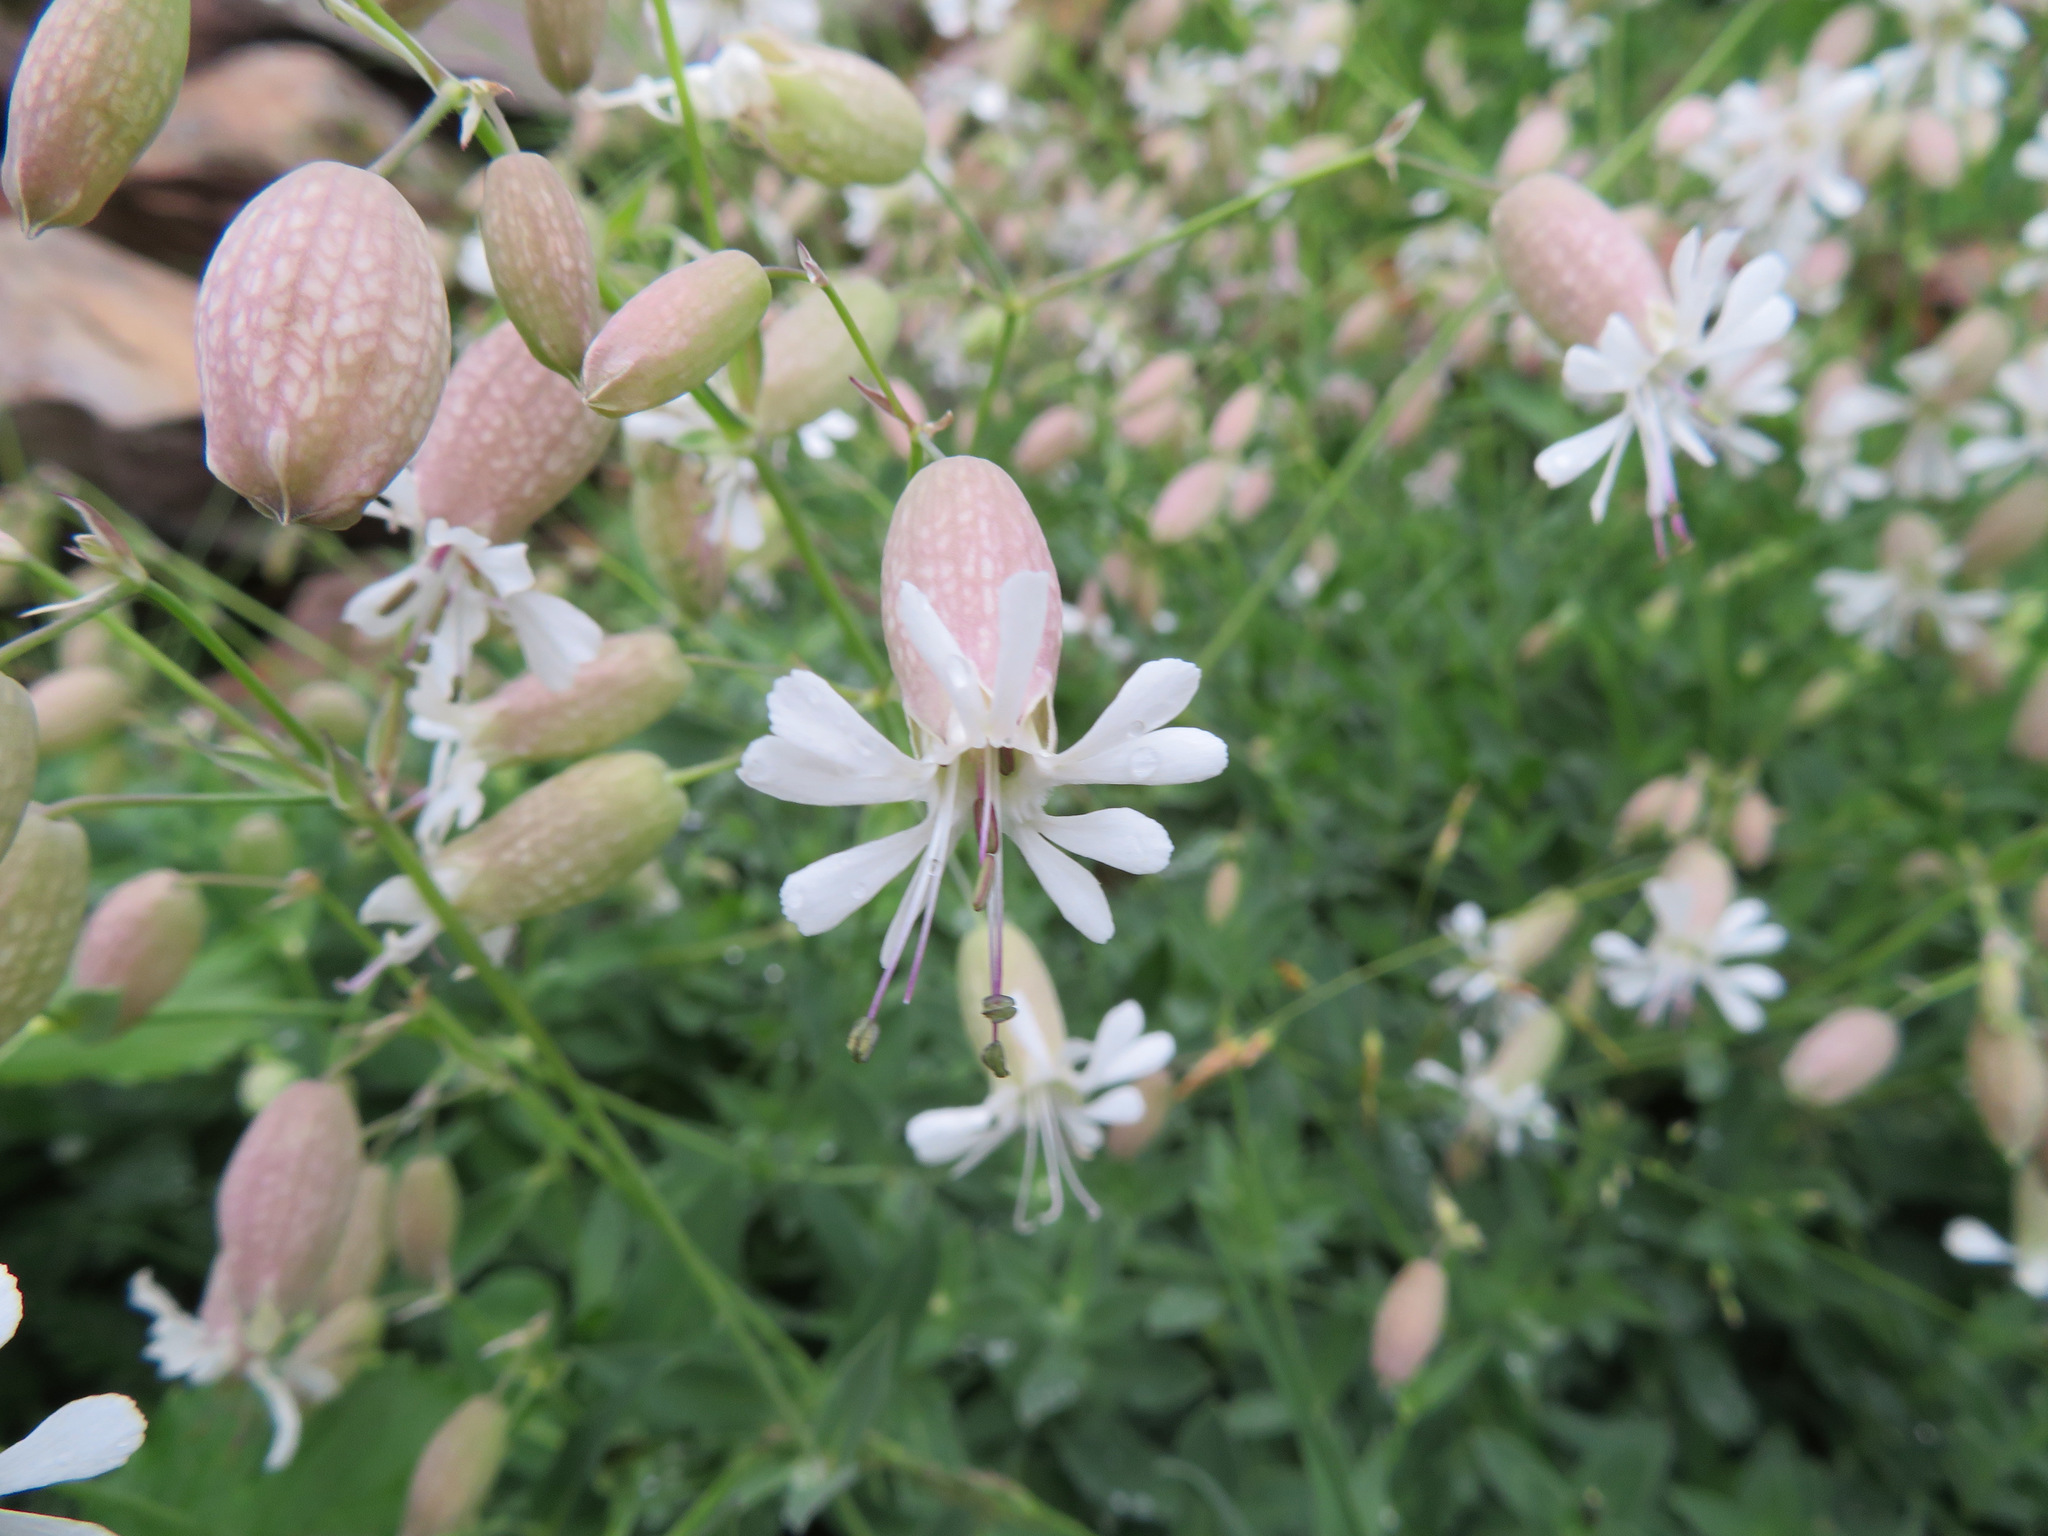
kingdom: Plantae
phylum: Tracheophyta
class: Magnoliopsida
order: Caryophyllales
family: Caryophyllaceae
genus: Silene
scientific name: Silene vulgaris
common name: Bladder campion
